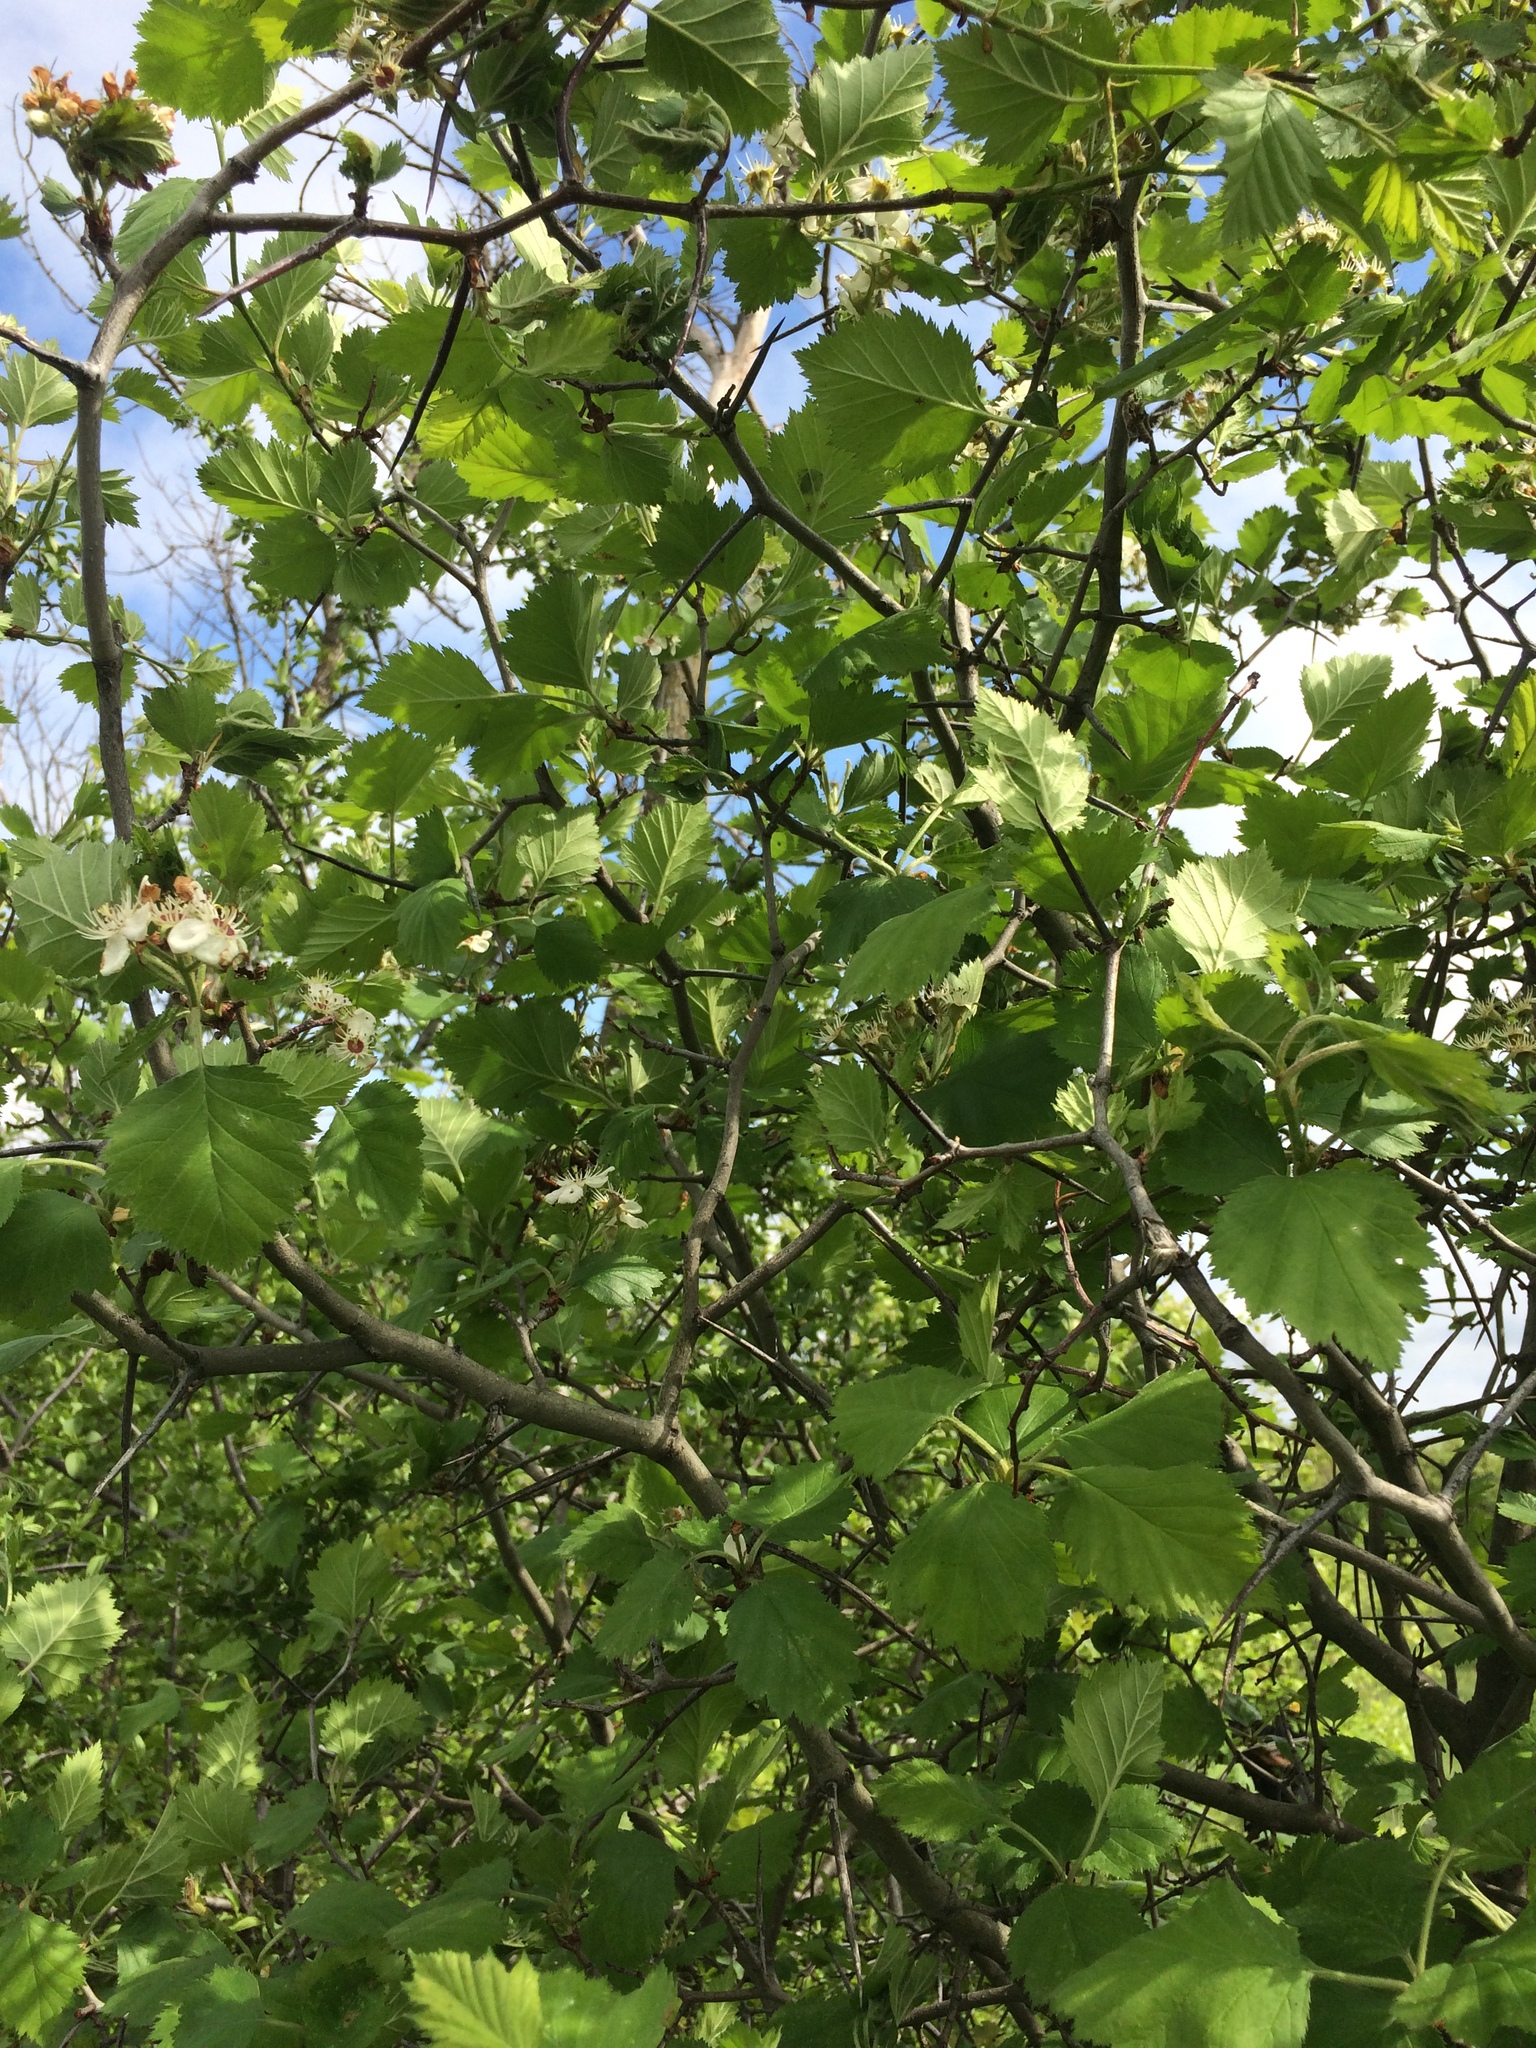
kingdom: Plantae
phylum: Tracheophyta
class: Magnoliopsida
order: Rosales
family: Rosaceae
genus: Crataegus
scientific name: Crataegus submollis
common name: Hairy cockspurthorn
